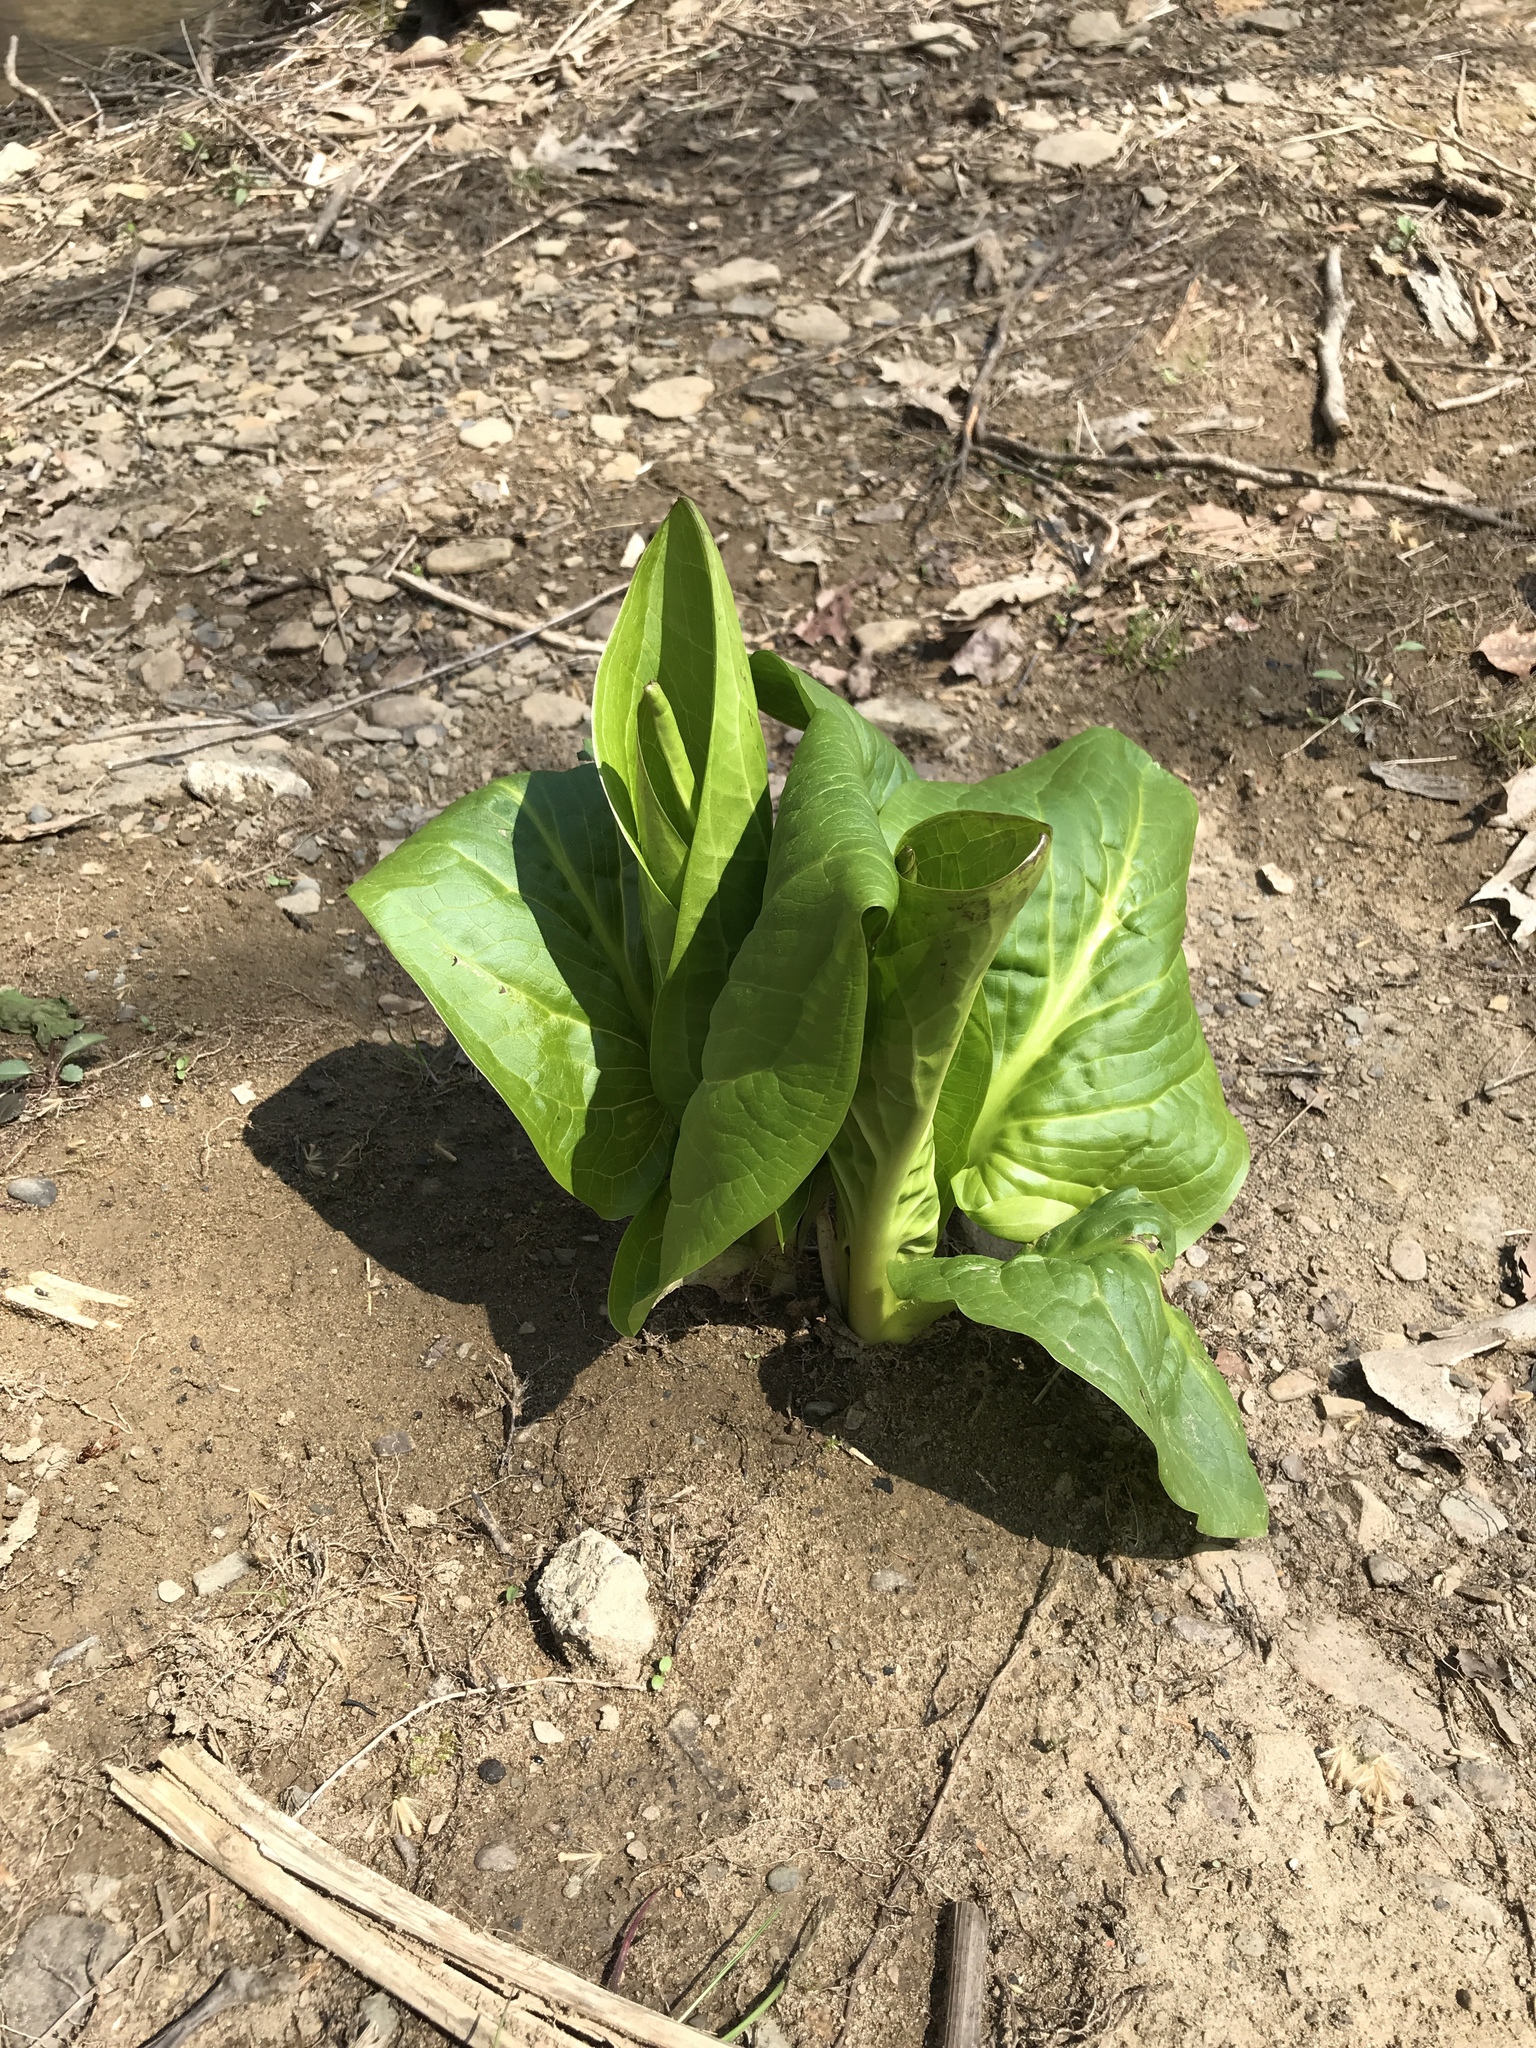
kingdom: Plantae
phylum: Tracheophyta
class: Liliopsida
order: Alismatales
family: Araceae
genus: Symplocarpus
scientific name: Symplocarpus foetidus
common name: Eastern skunk cabbage
